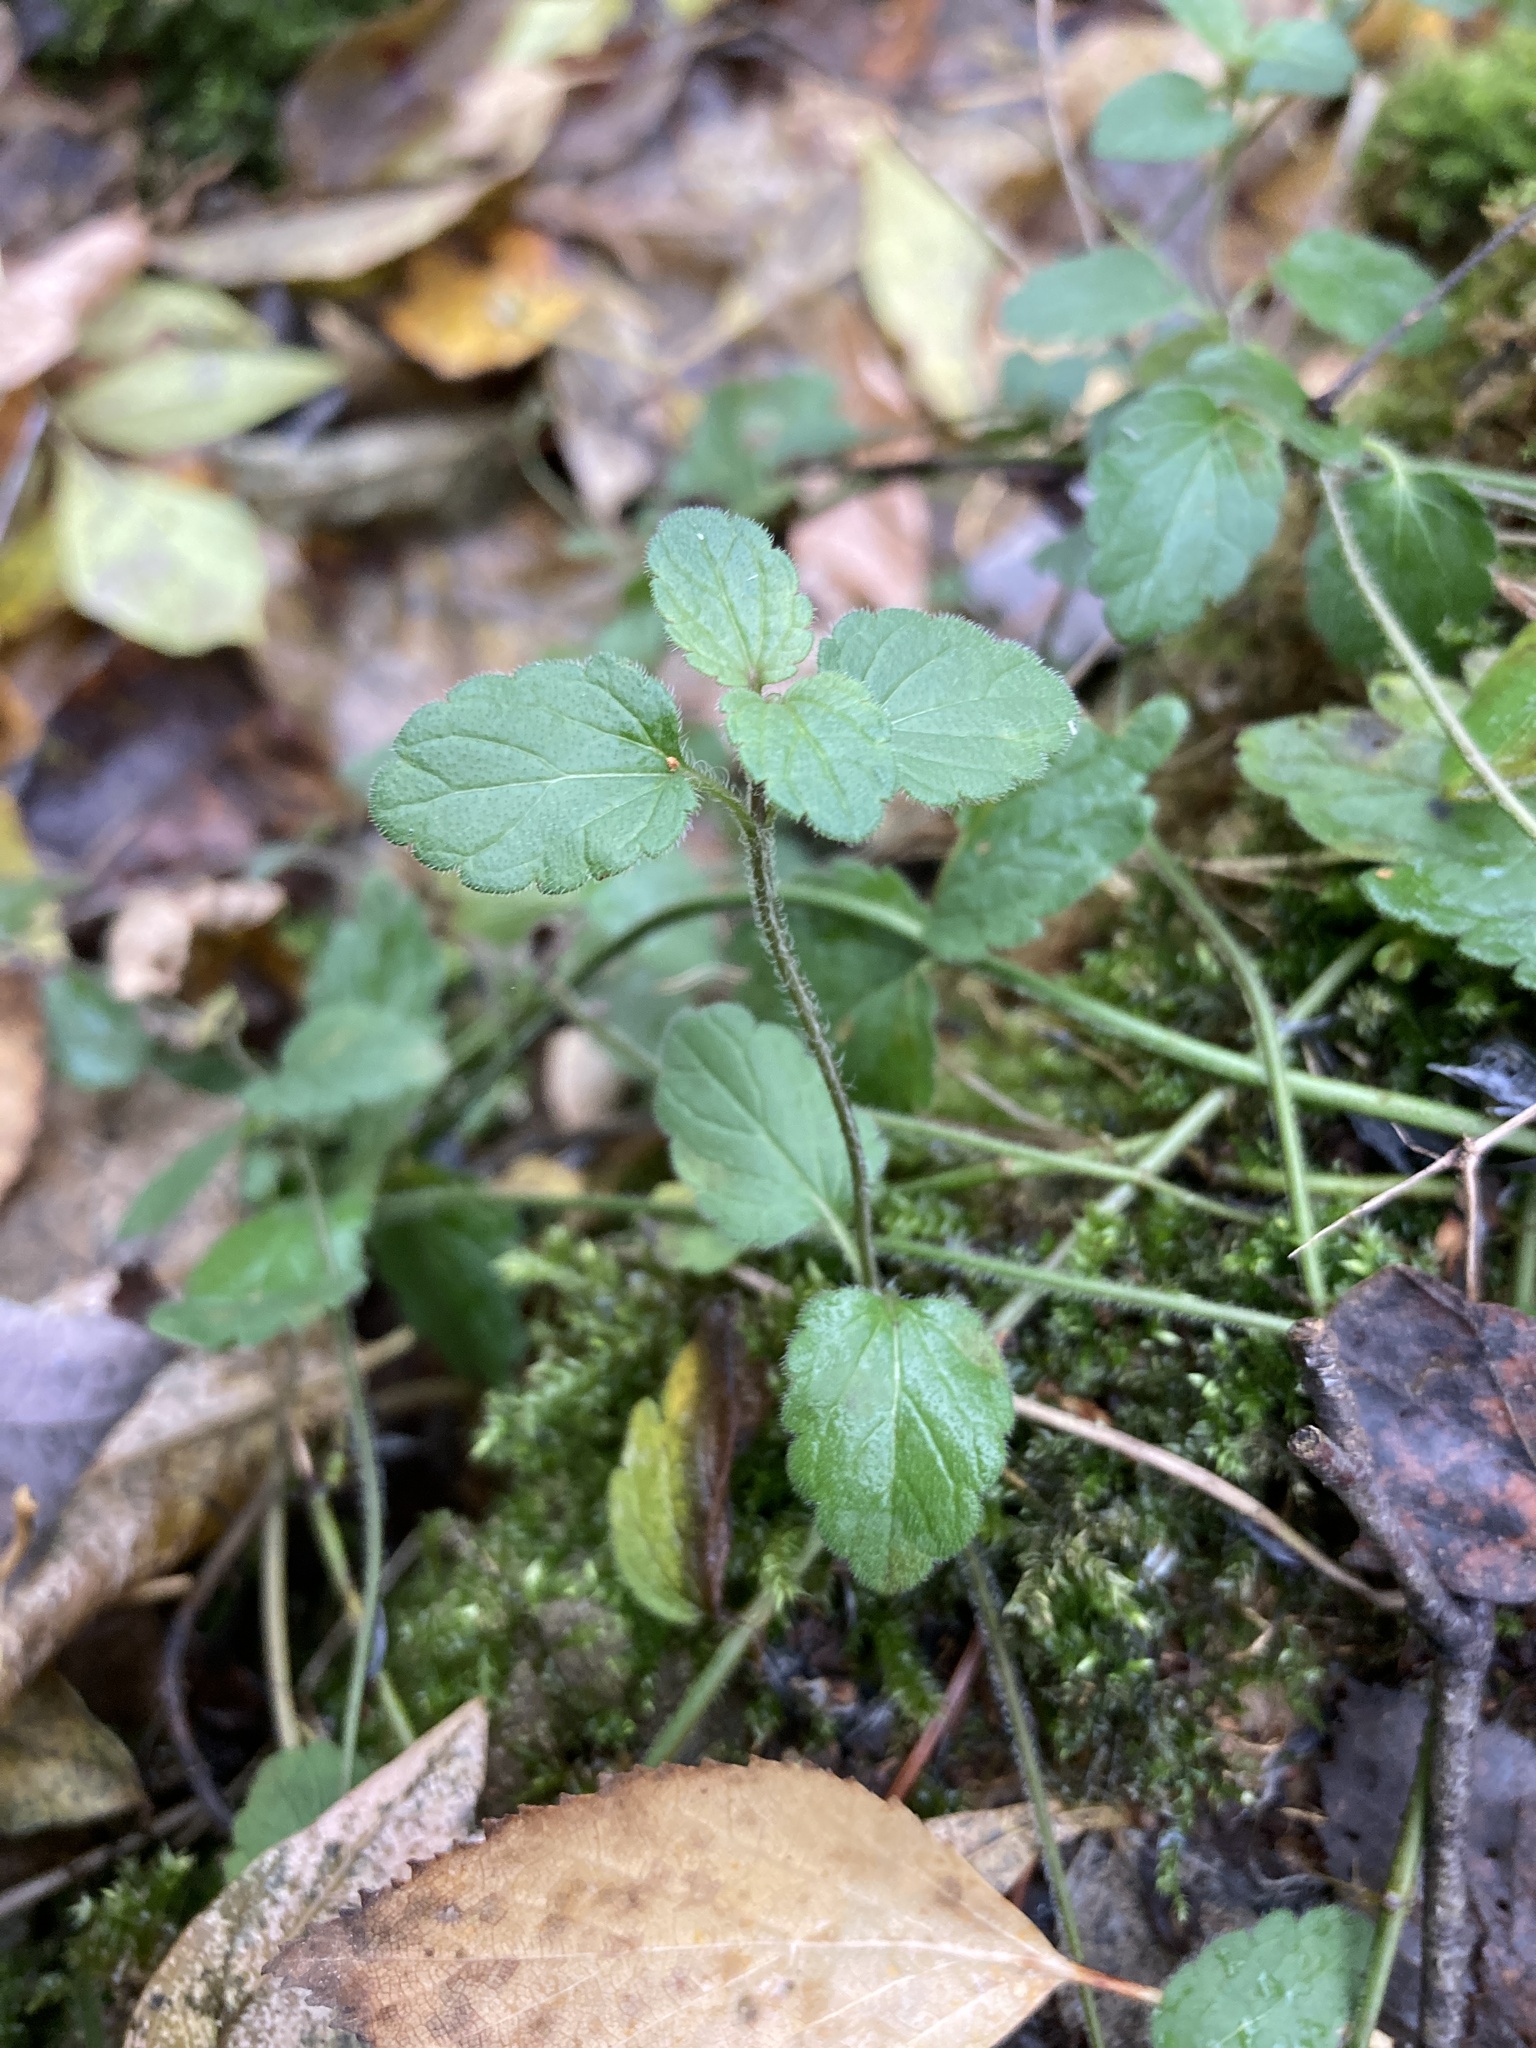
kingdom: Plantae
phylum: Tracheophyta
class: Magnoliopsida
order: Lamiales
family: Plantaginaceae
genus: Veronica
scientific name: Veronica chamaedrys
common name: Germander speedwell
